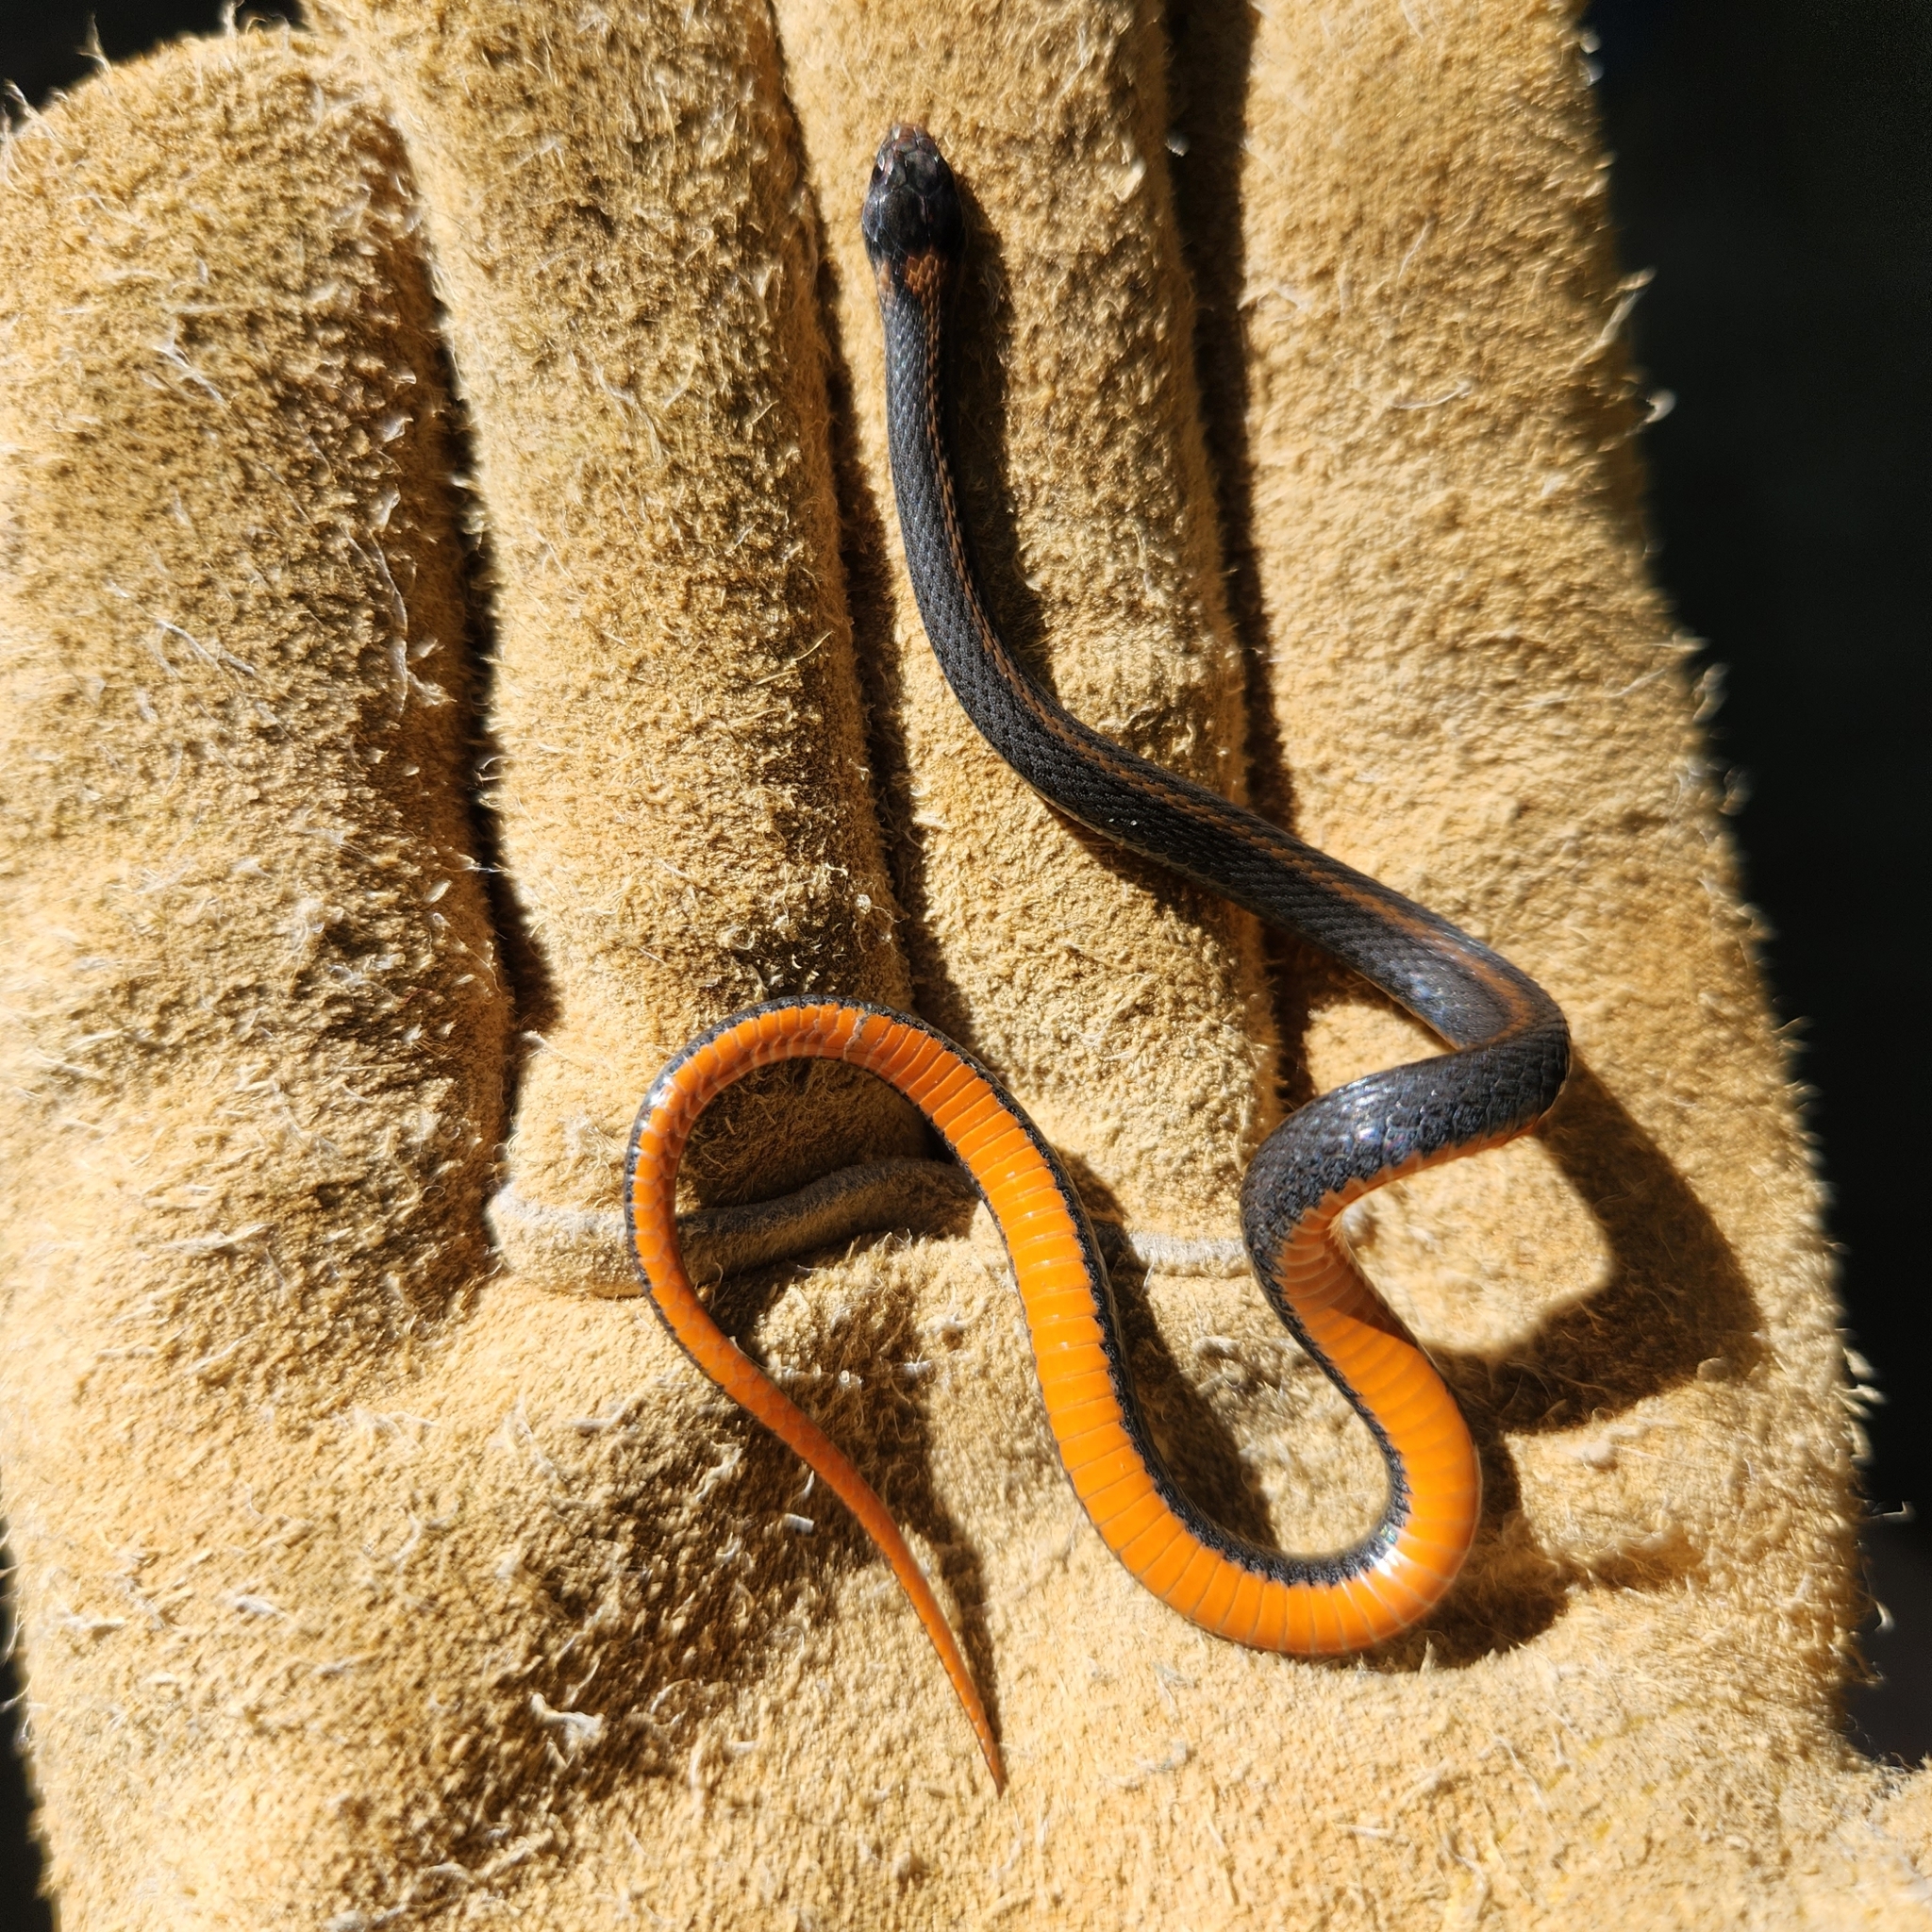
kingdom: Animalia
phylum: Chordata
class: Squamata
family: Colubridae
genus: Storeria
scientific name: Storeria occipitomaculata
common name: Redbelly snake
